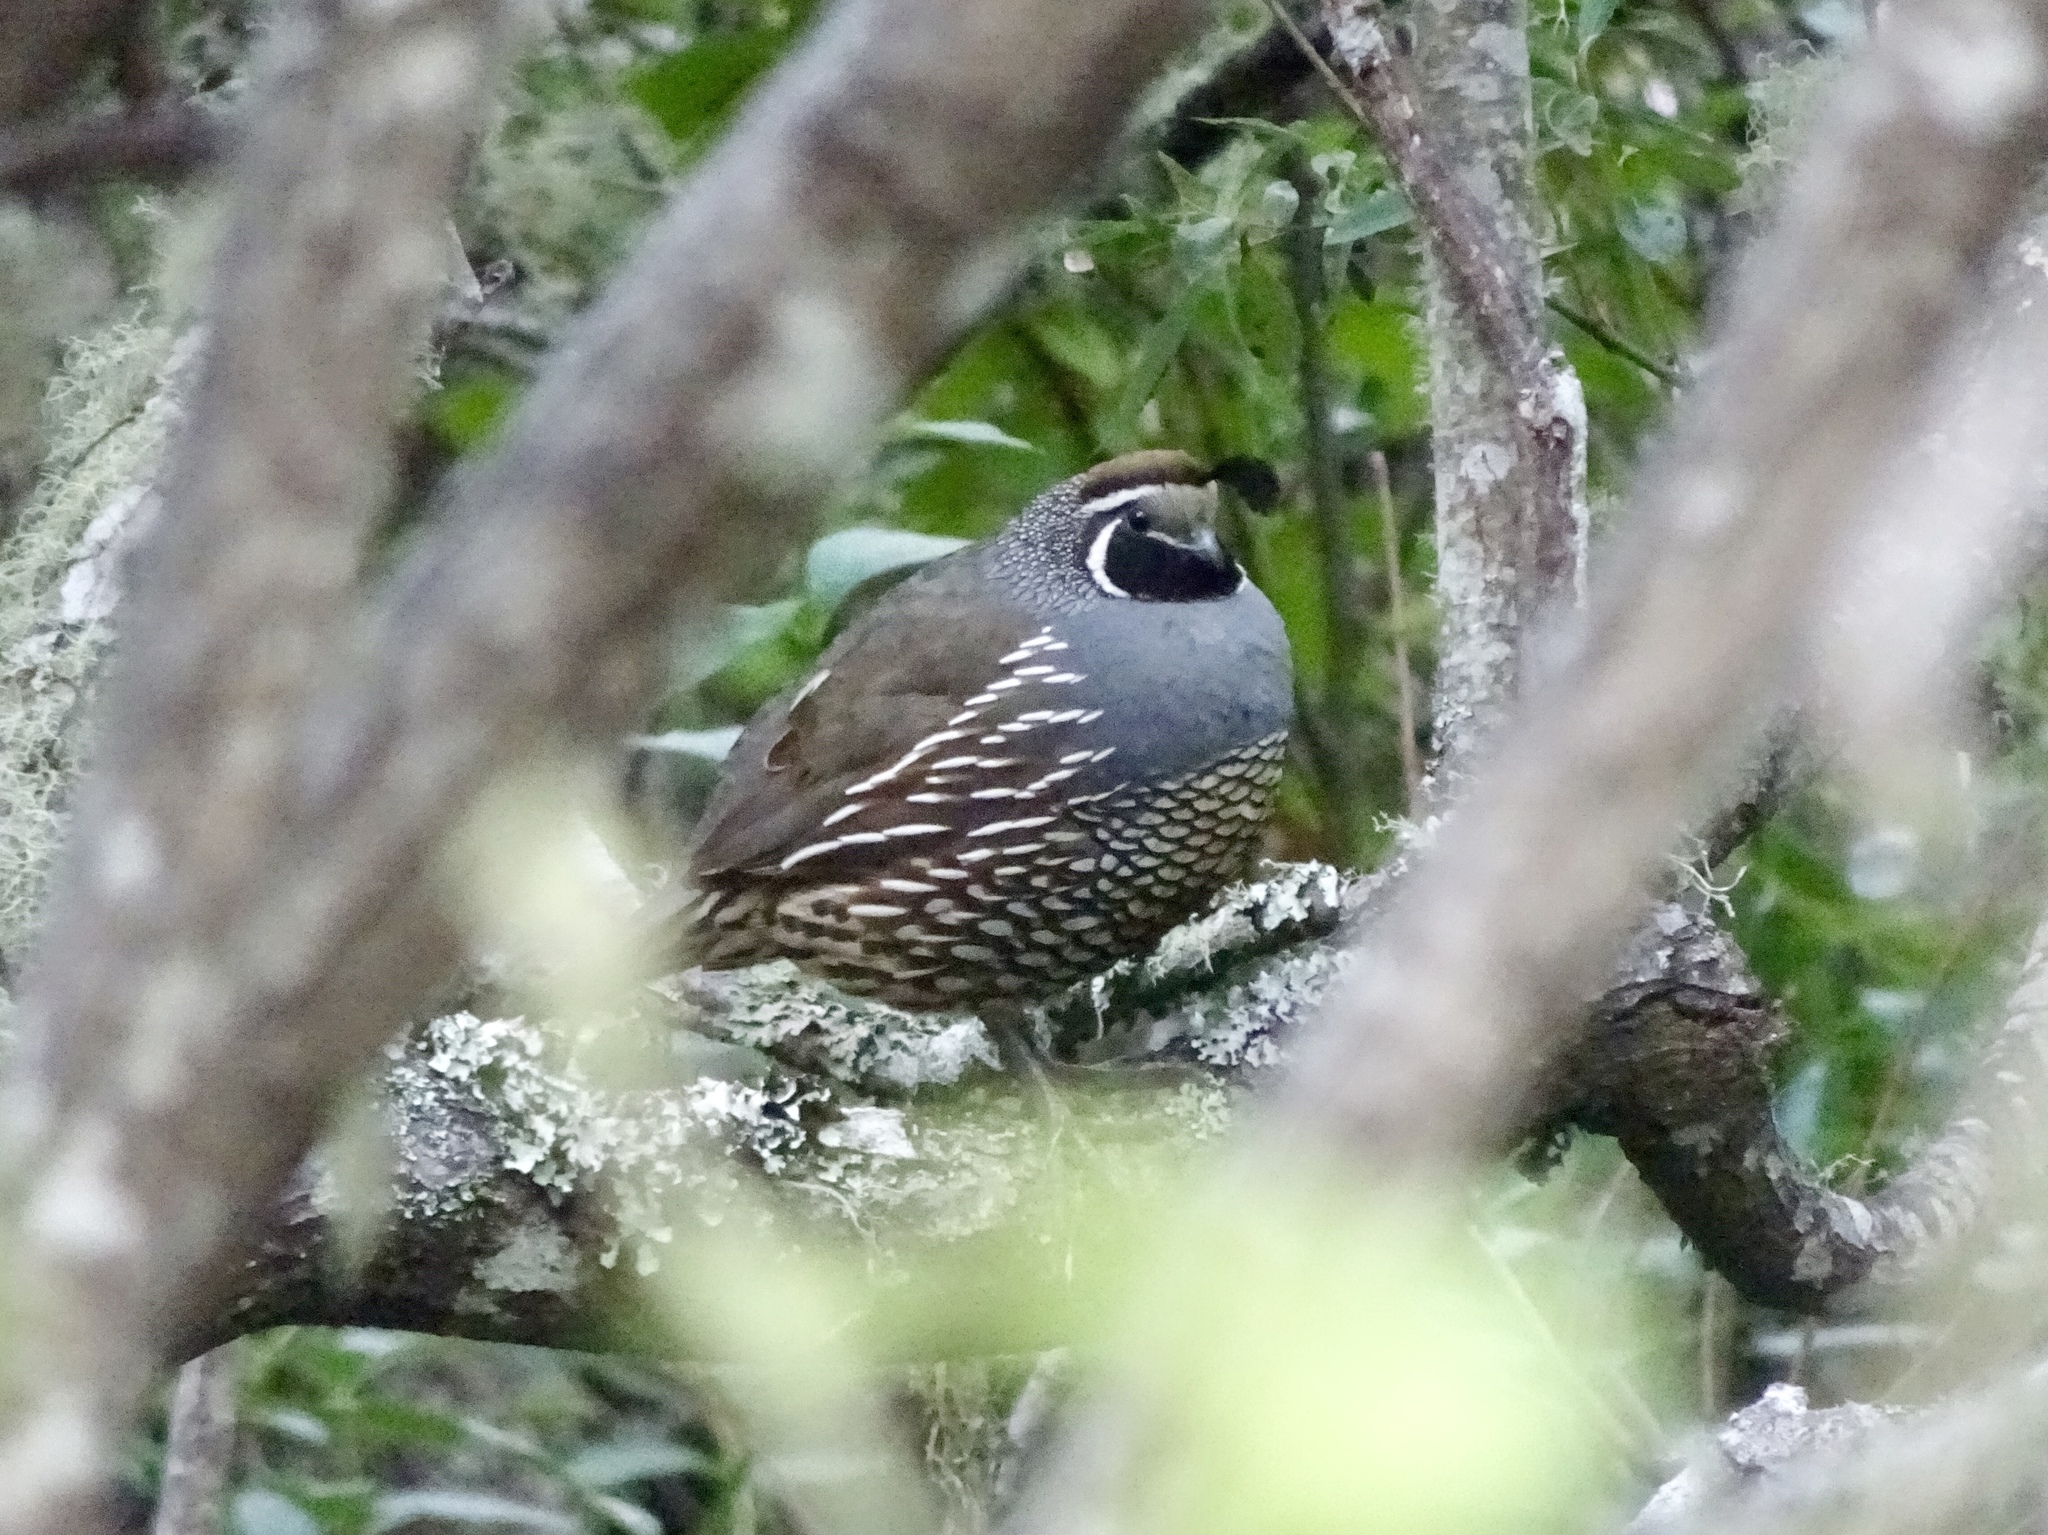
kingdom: Animalia
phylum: Chordata
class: Aves
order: Galliformes
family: Odontophoridae
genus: Callipepla
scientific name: Callipepla californica
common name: California quail
